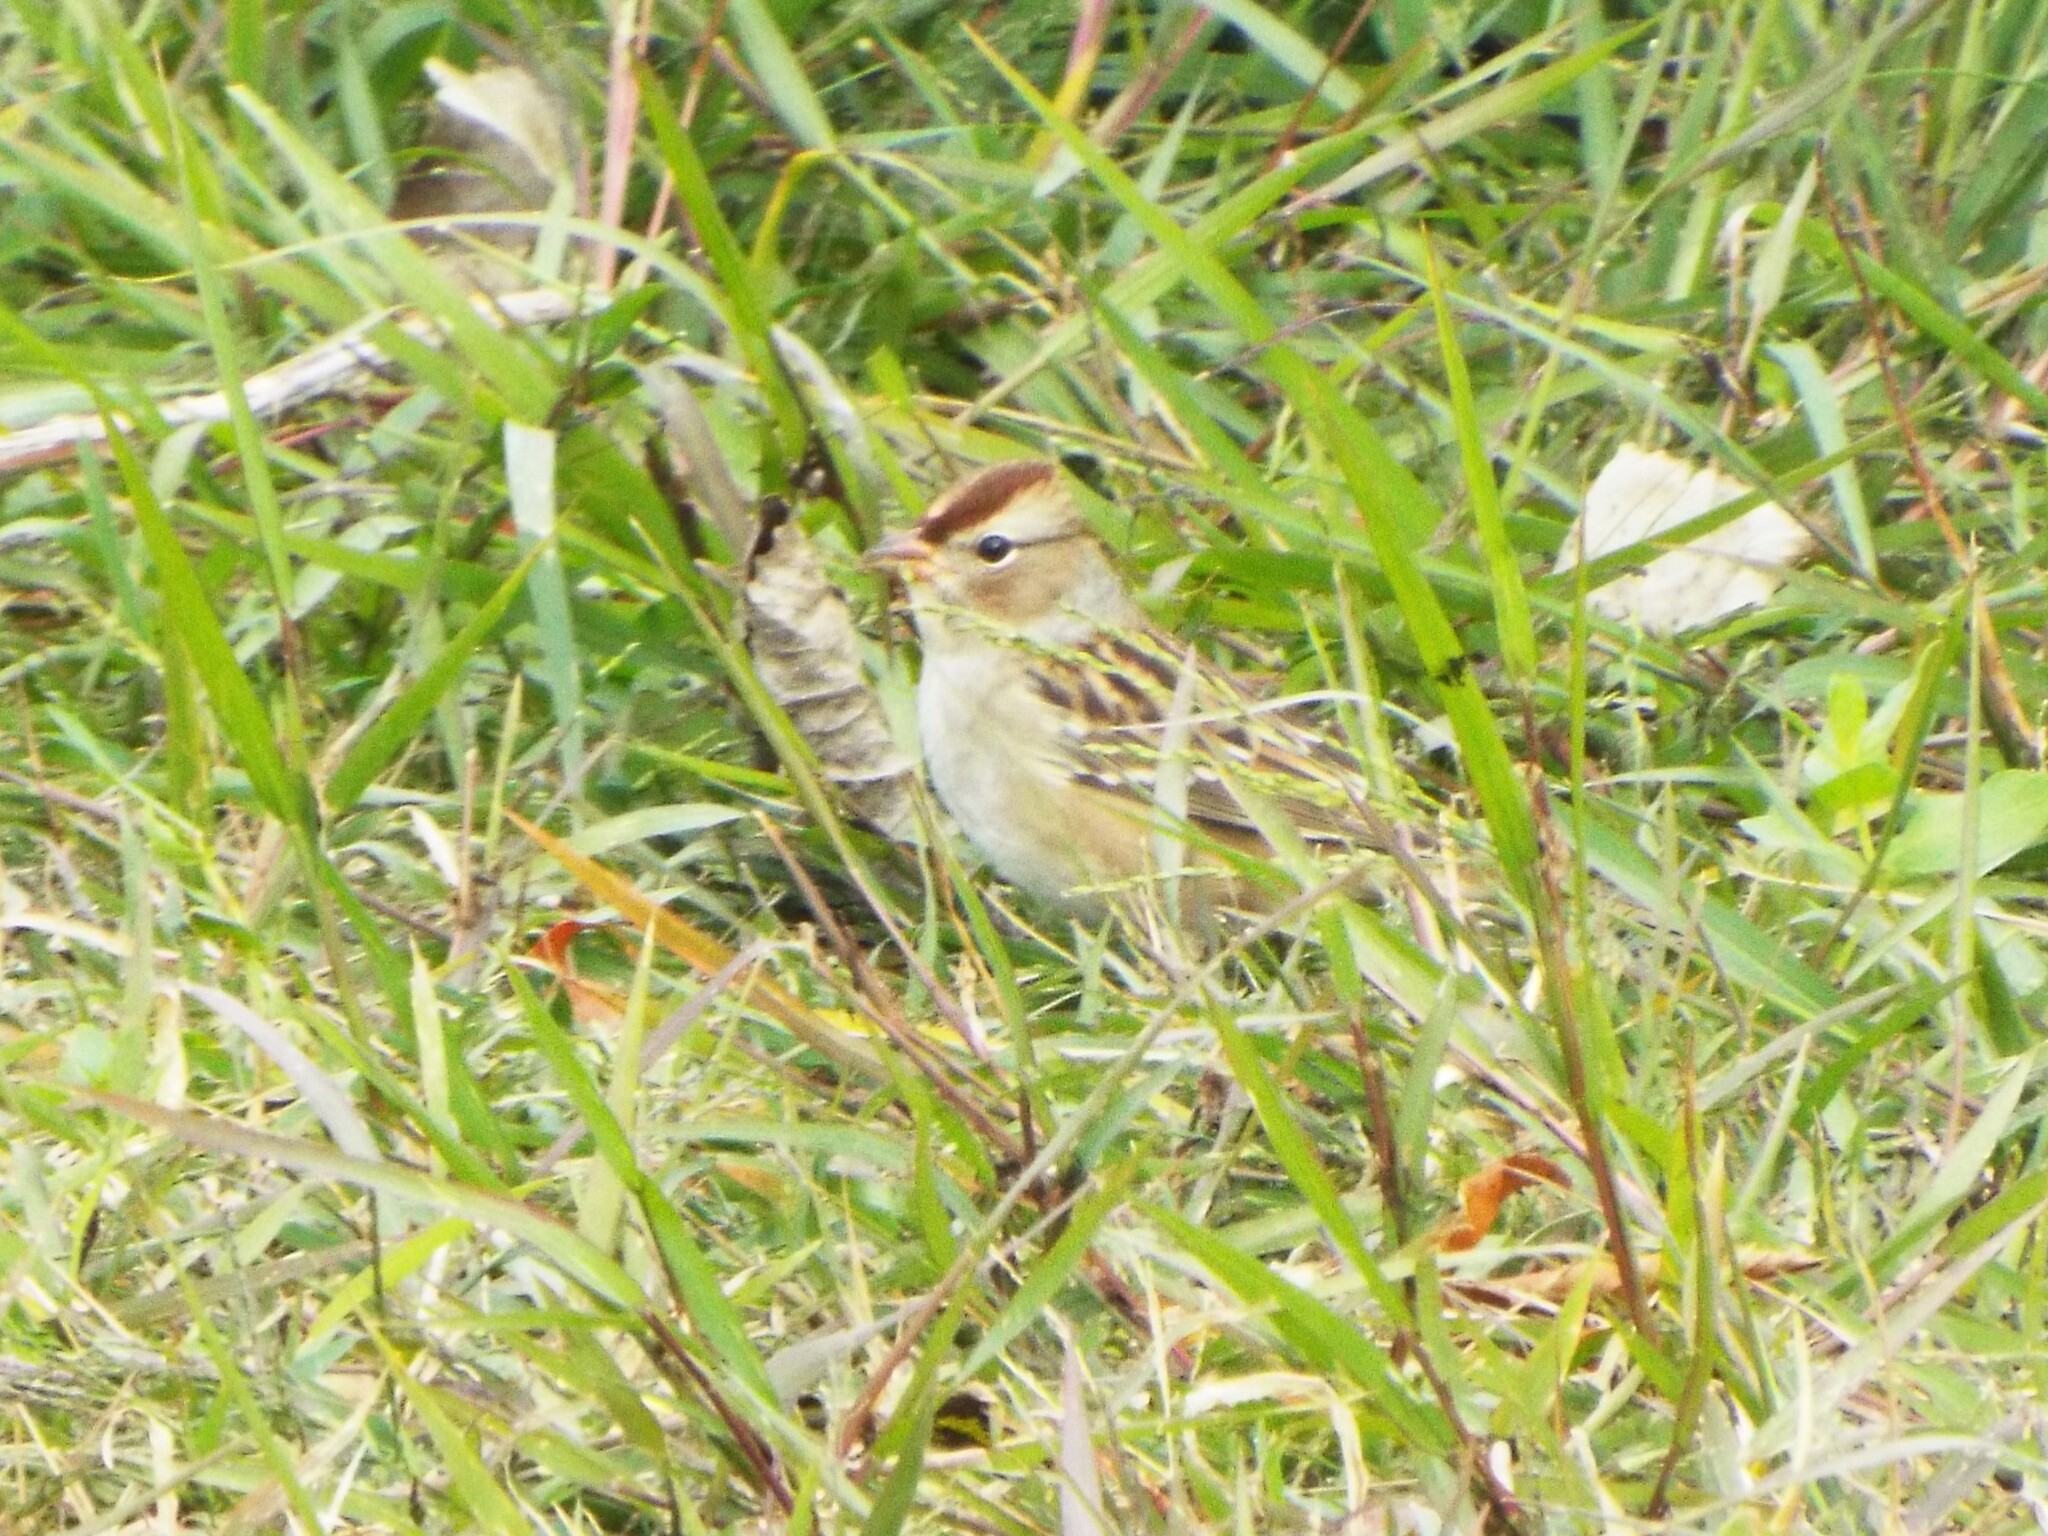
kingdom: Animalia
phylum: Chordata
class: Aves
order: Passeriformes
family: Passerellidae
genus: Zonotrichia
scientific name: Zonotrichia leucophrys
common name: White-crowned sparrow
